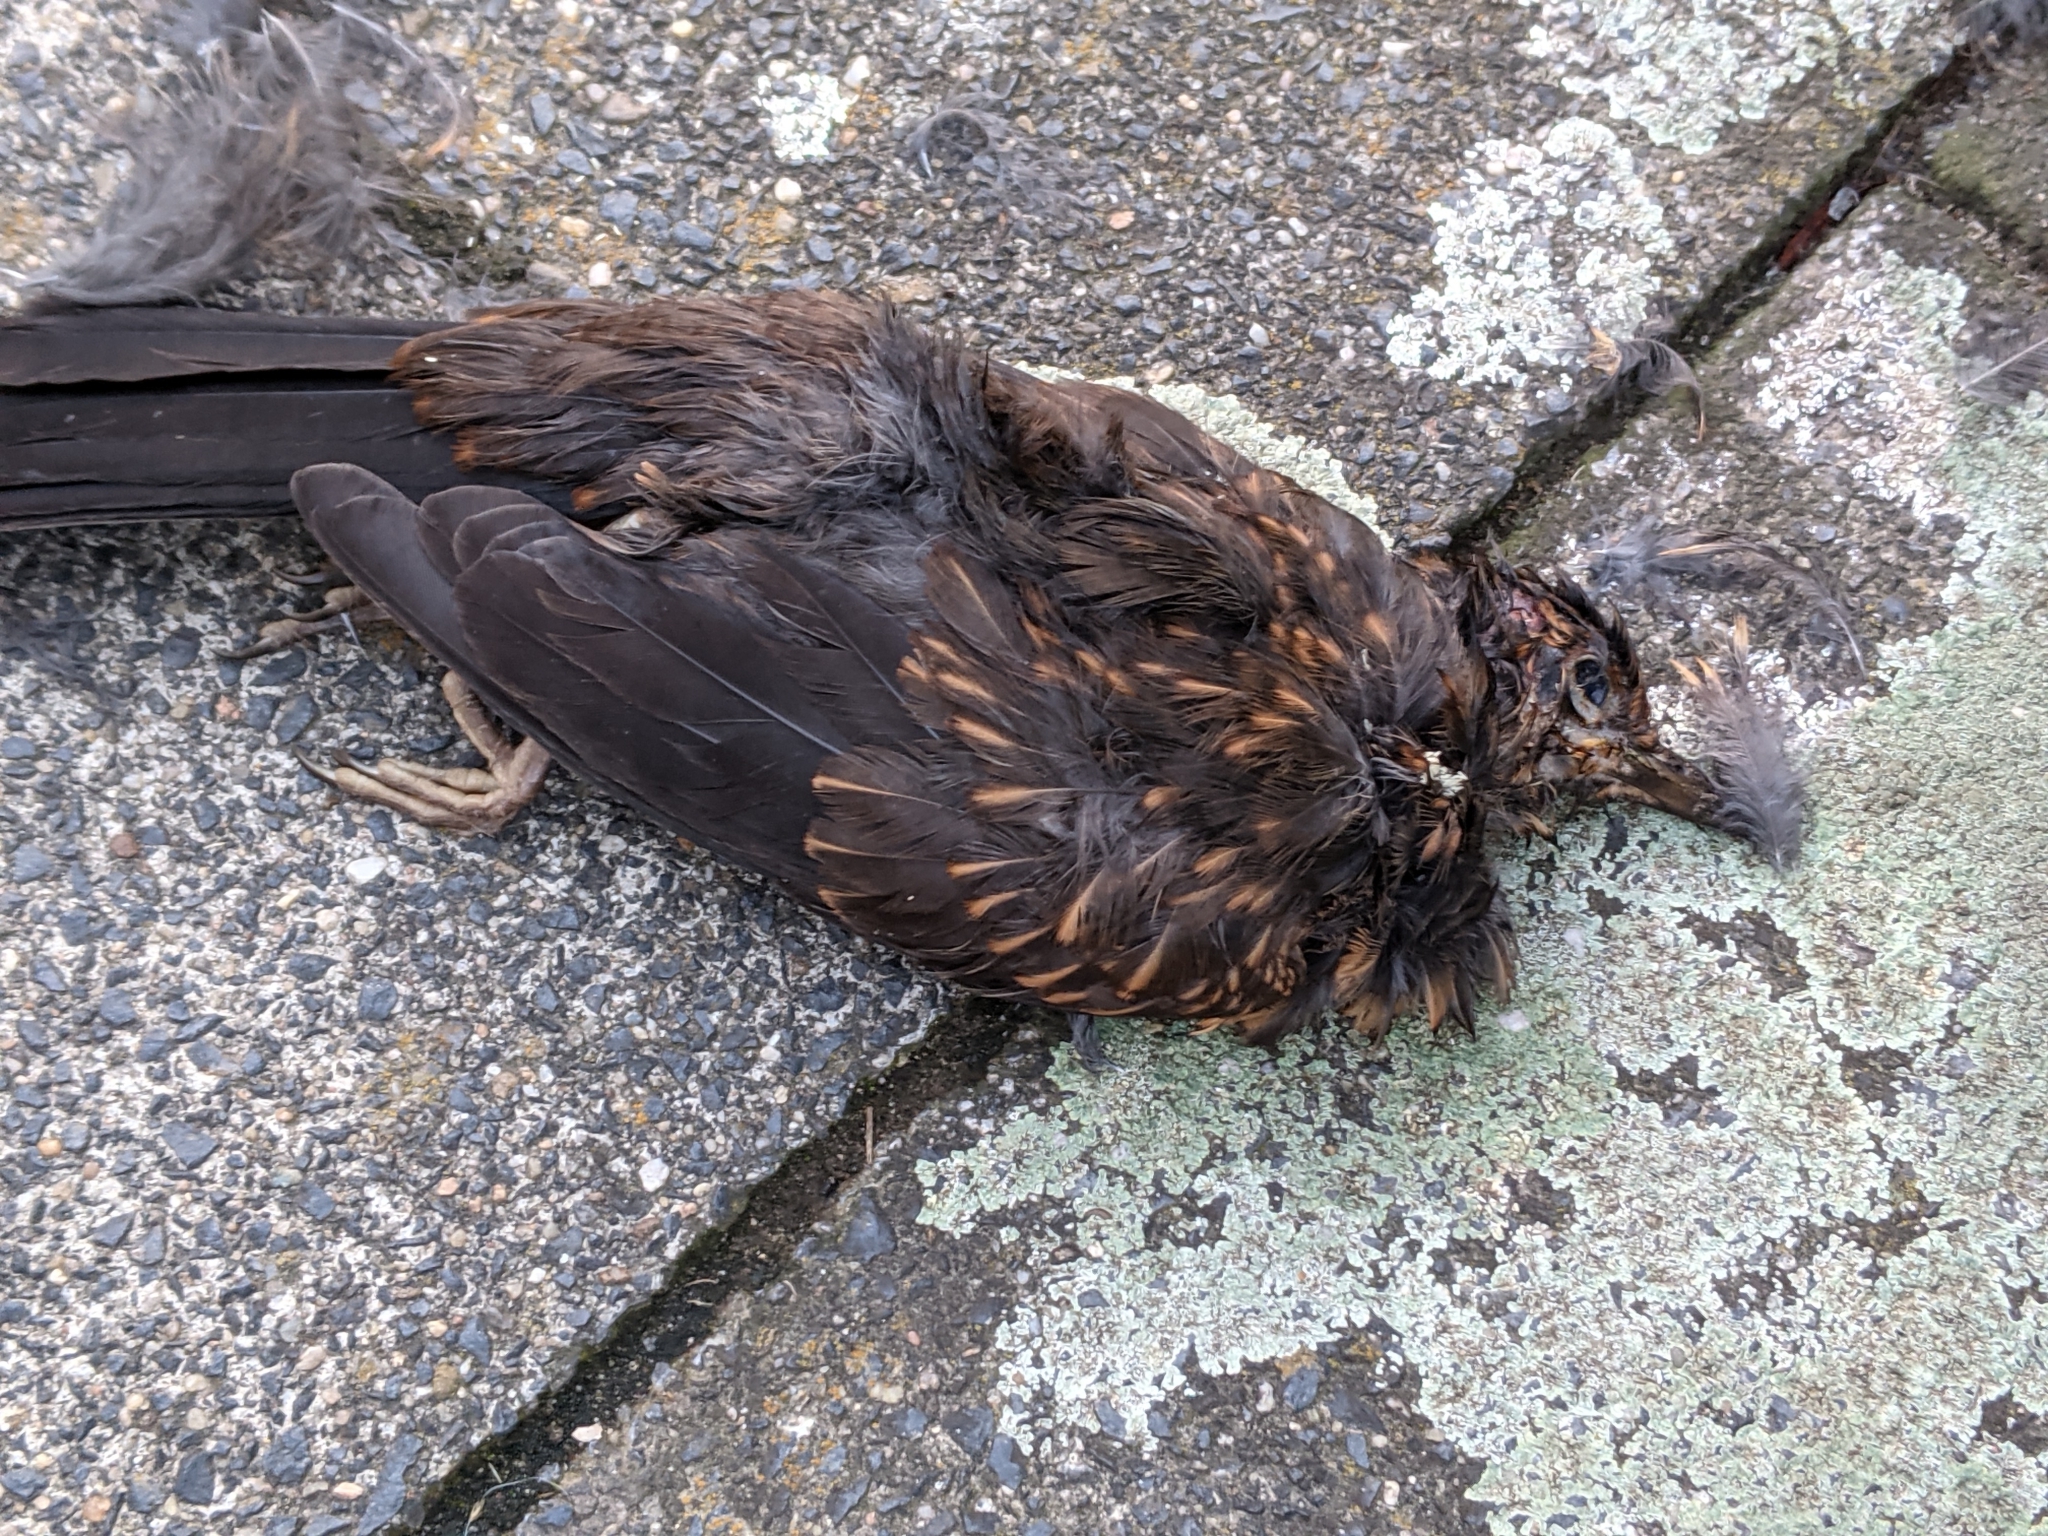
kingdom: Animalia
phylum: Chordata
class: Aves
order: Passeriformes
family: Turdidae
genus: Turdus
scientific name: Turdus merula
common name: Common blackbird
